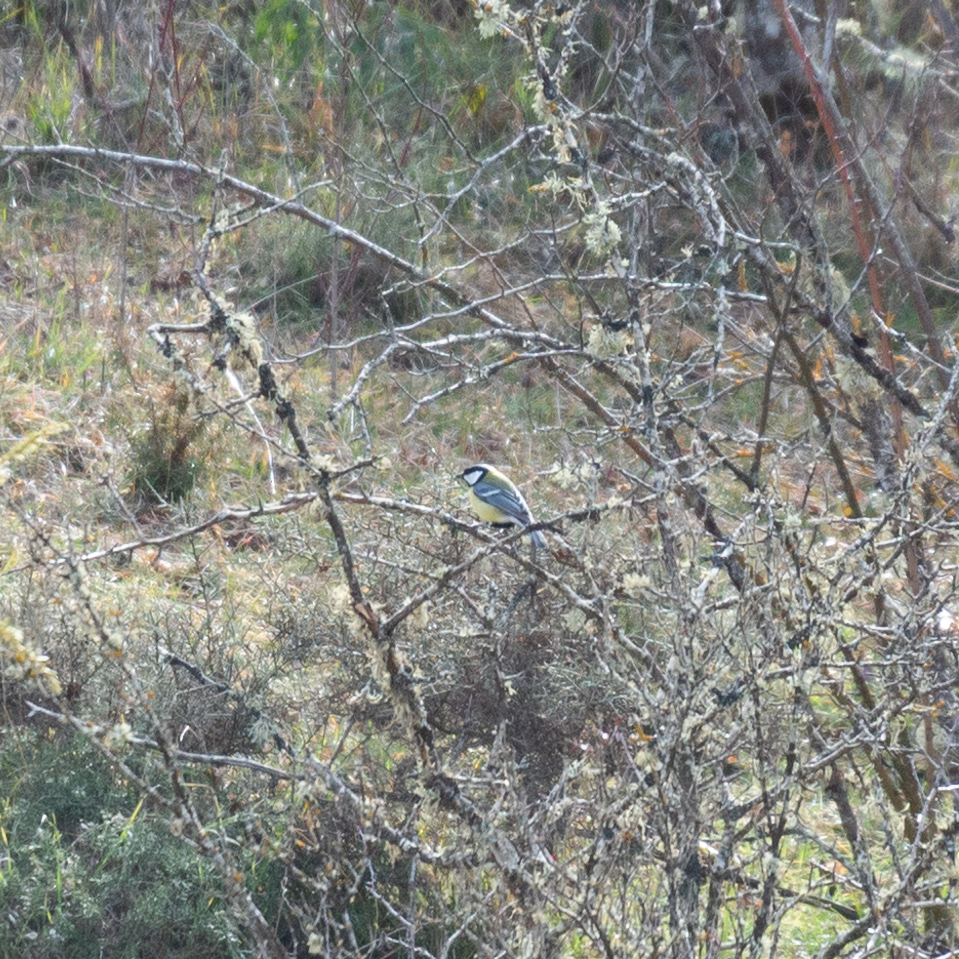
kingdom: Animalia
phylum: Chordata
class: Aves
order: Passeriformes
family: Paridae
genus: Parus
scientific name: Parus major
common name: Great tit
